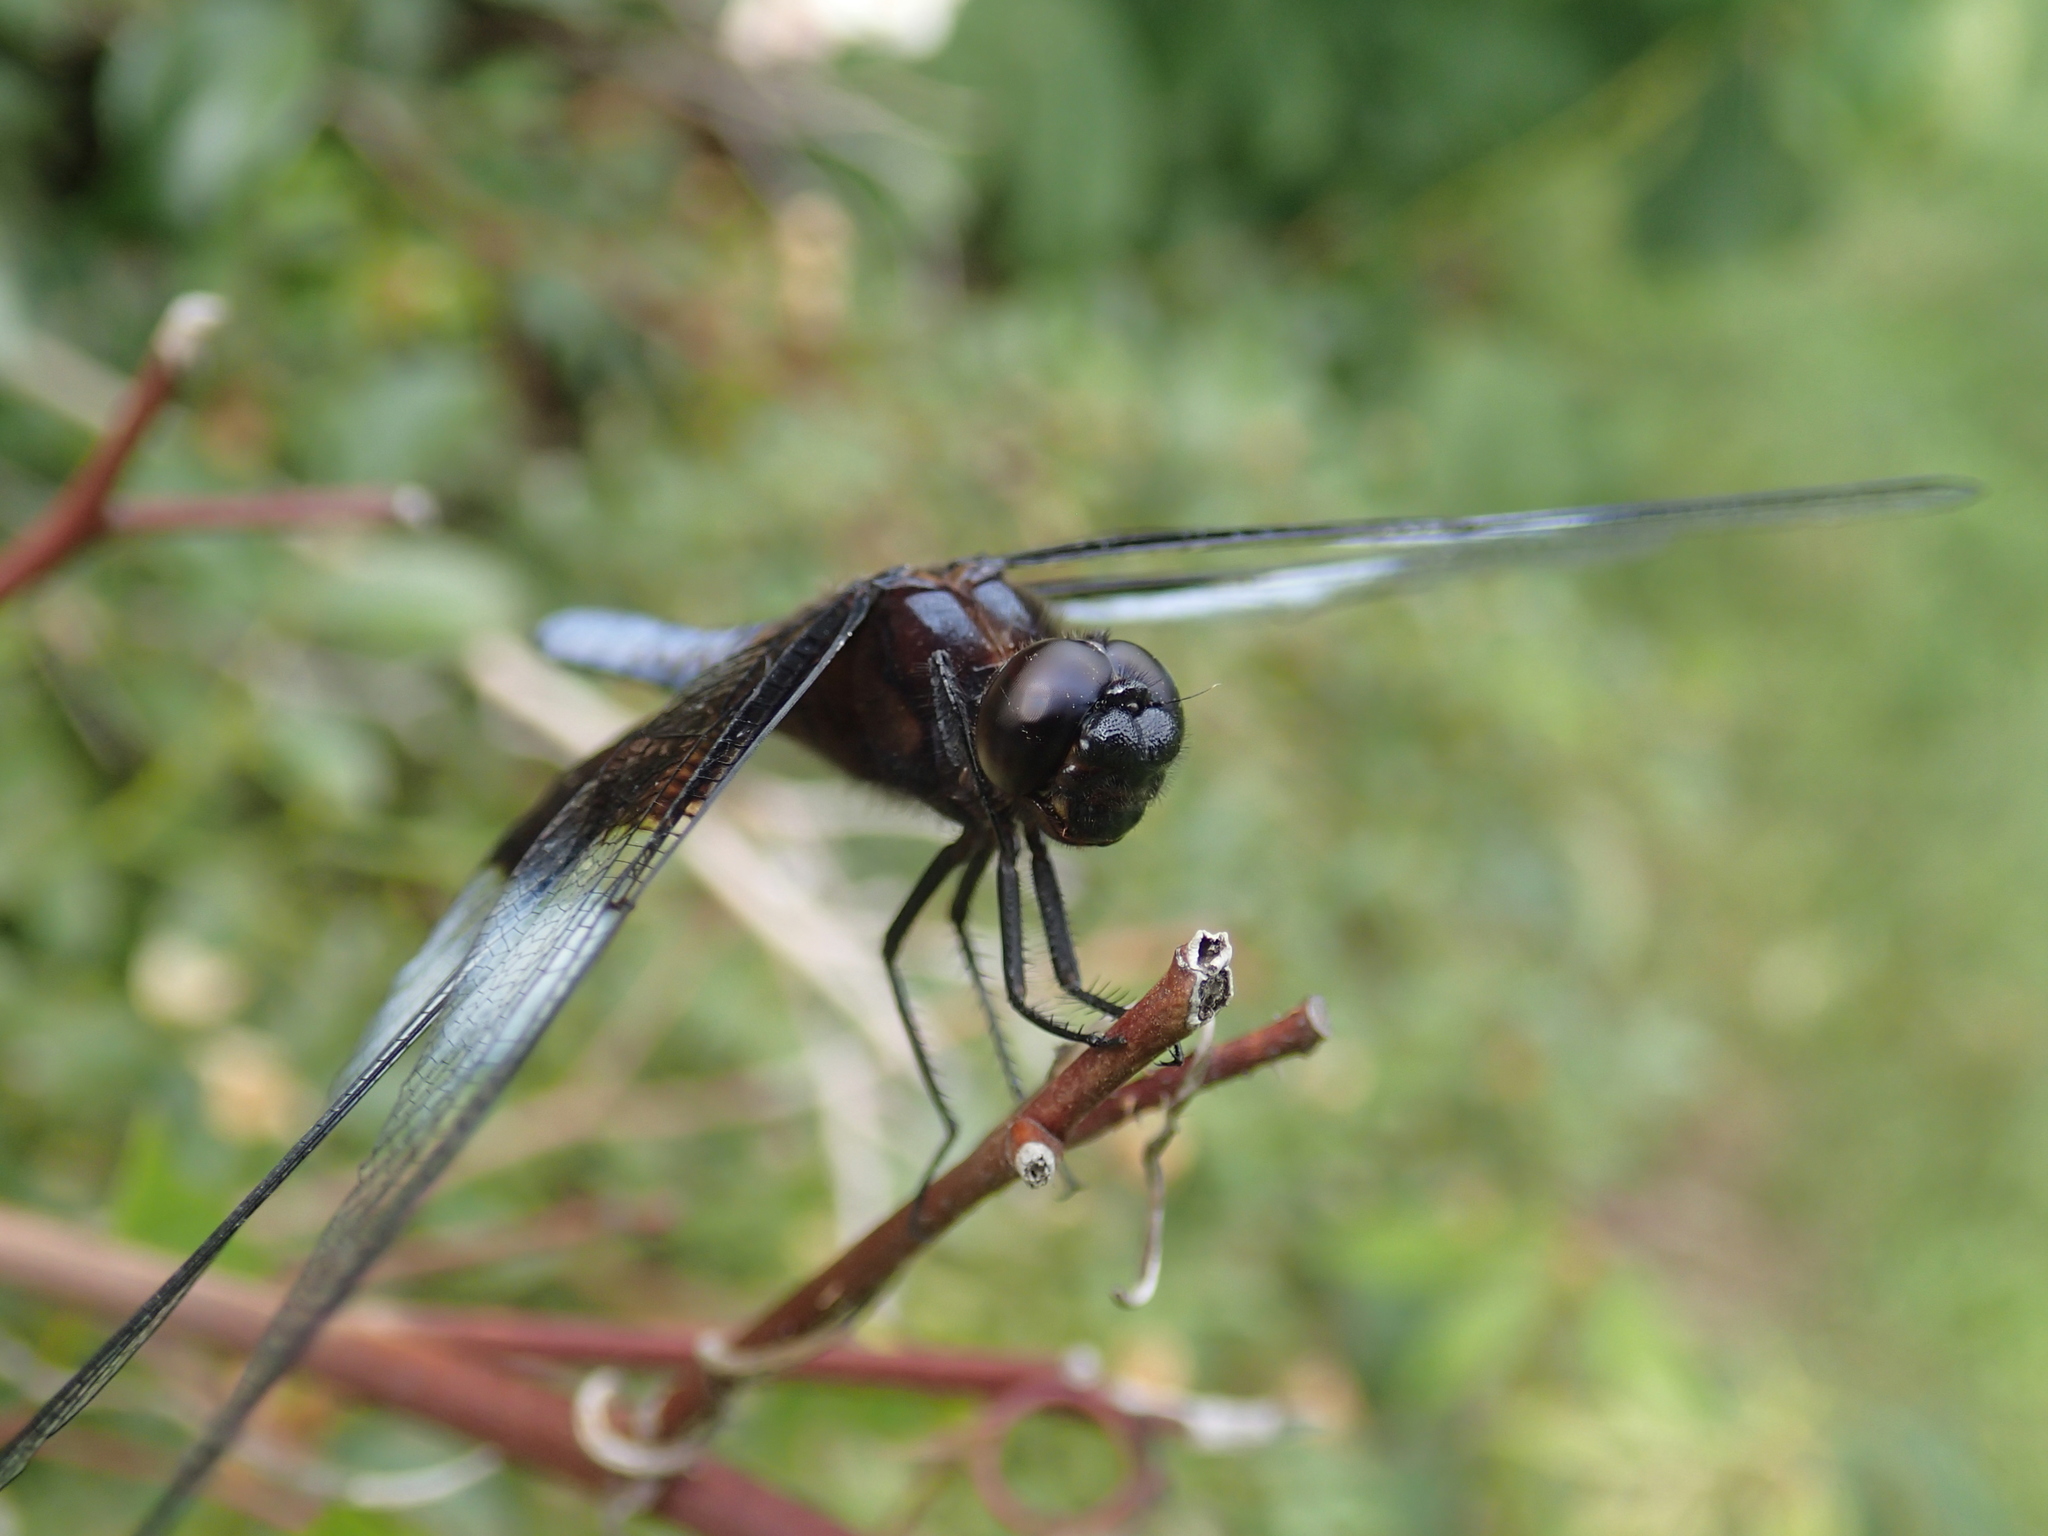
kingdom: Animalia
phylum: Arthropoda
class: Insecta
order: Odonata
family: Libellulidae
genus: Libellula
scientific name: Libellula luctuosa
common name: Widow skimmer
